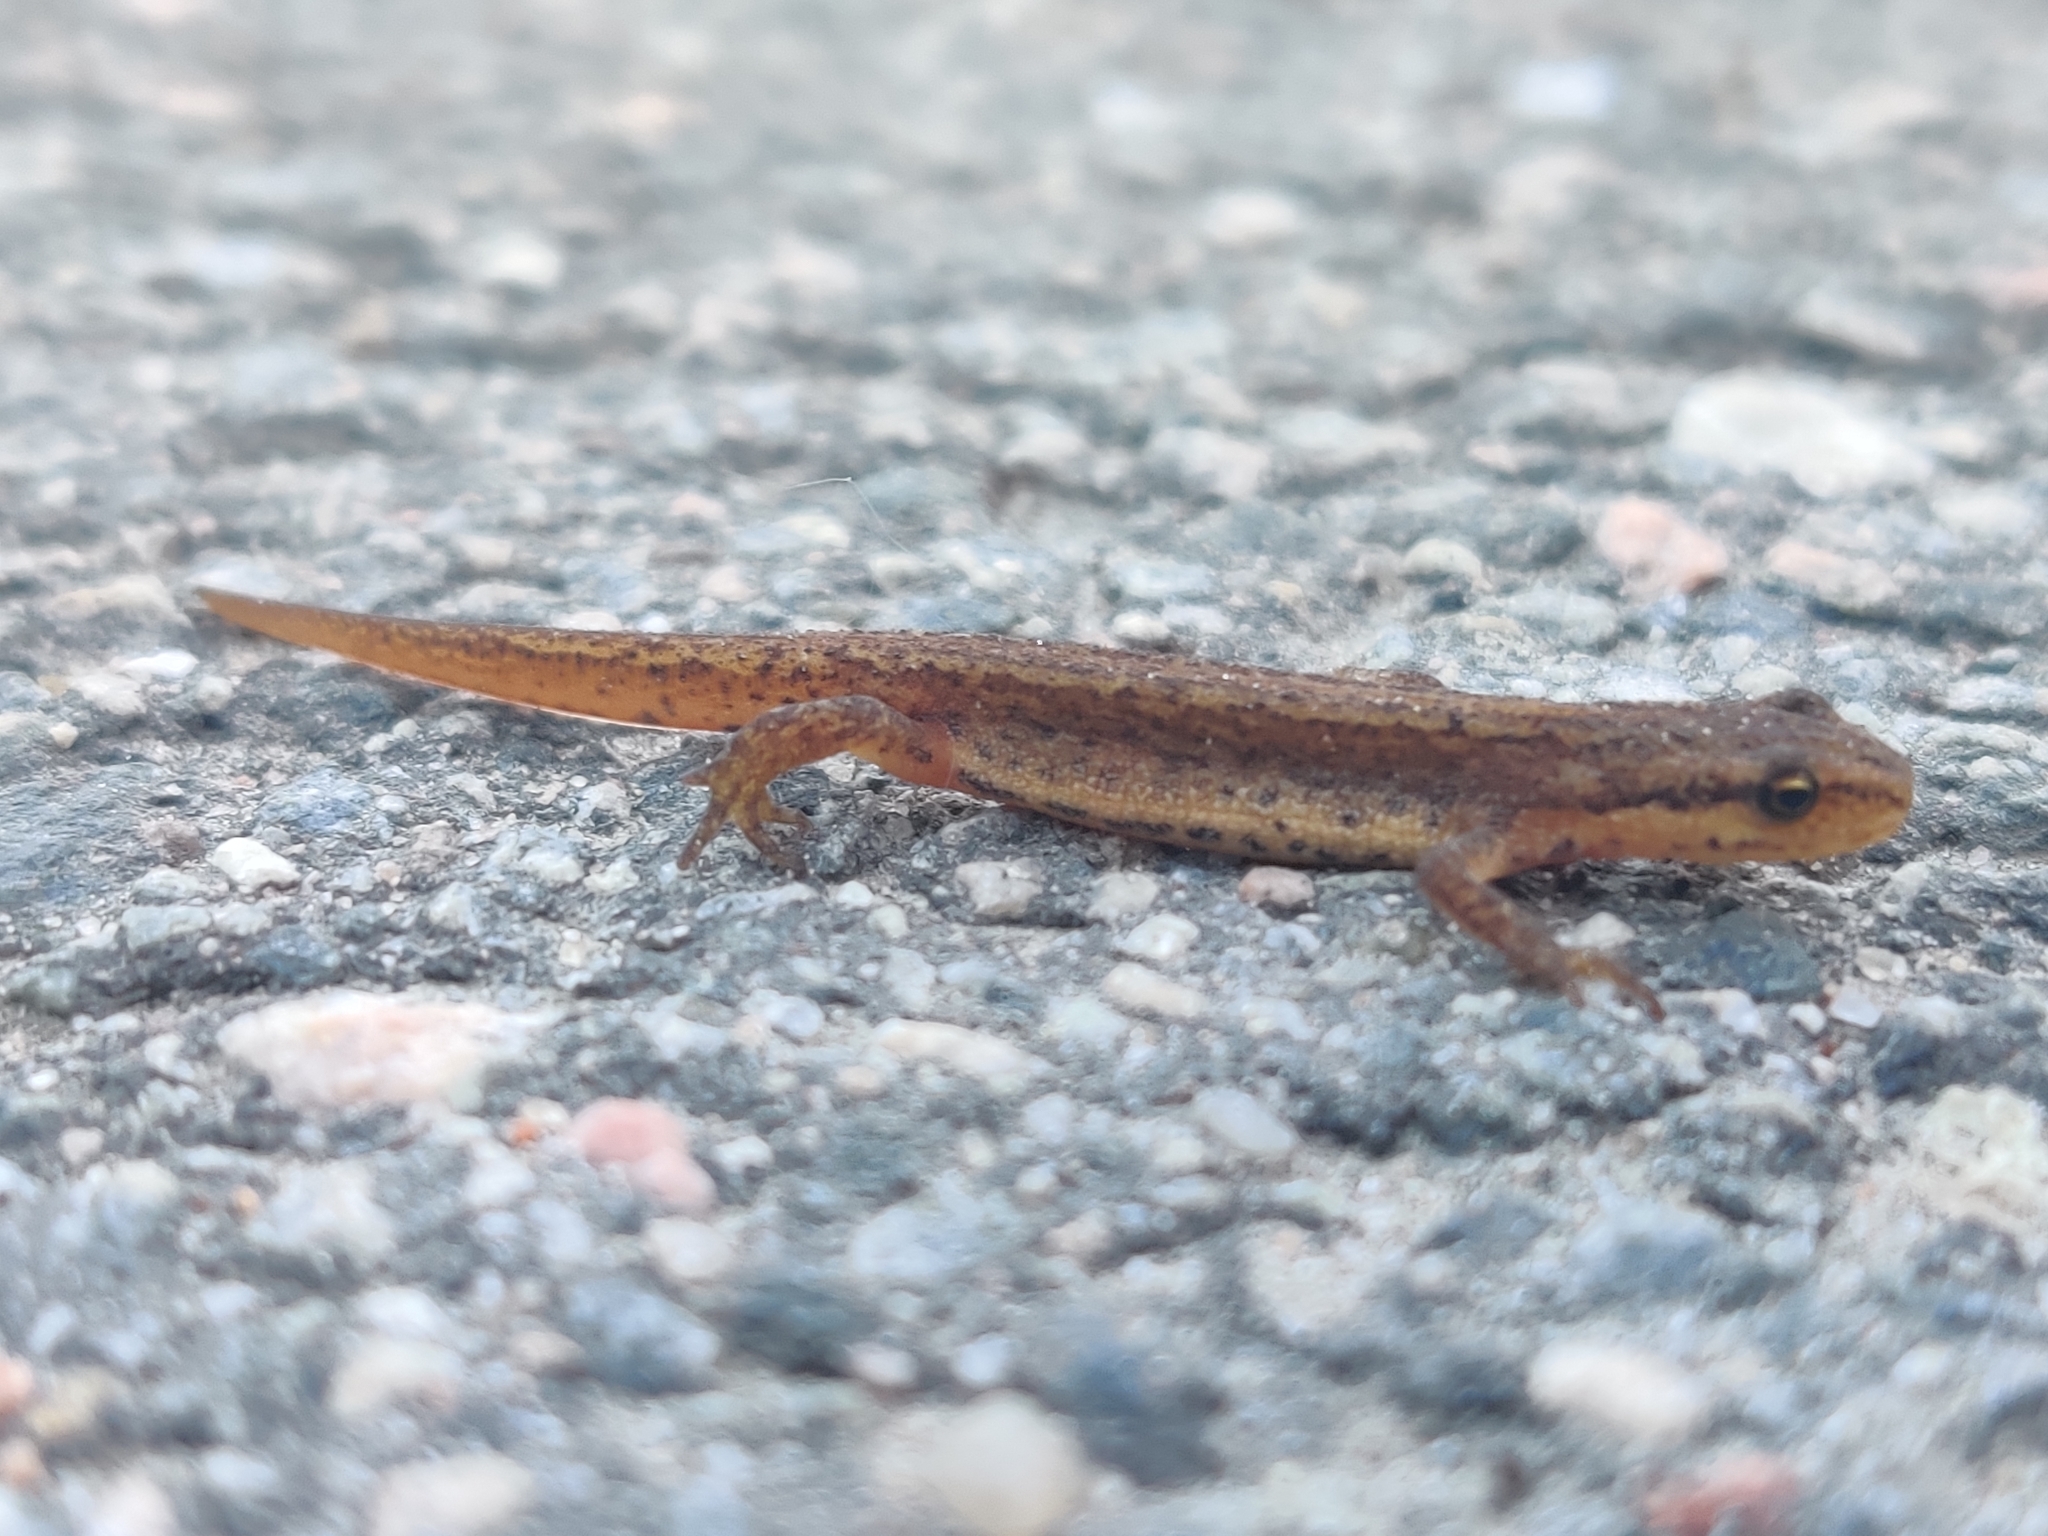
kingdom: Animalia
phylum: Chordata
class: Amphibia
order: Caudata
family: Salamandridae
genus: Lissotriton
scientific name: Lissotriton vulgaris
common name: Smooth newt
